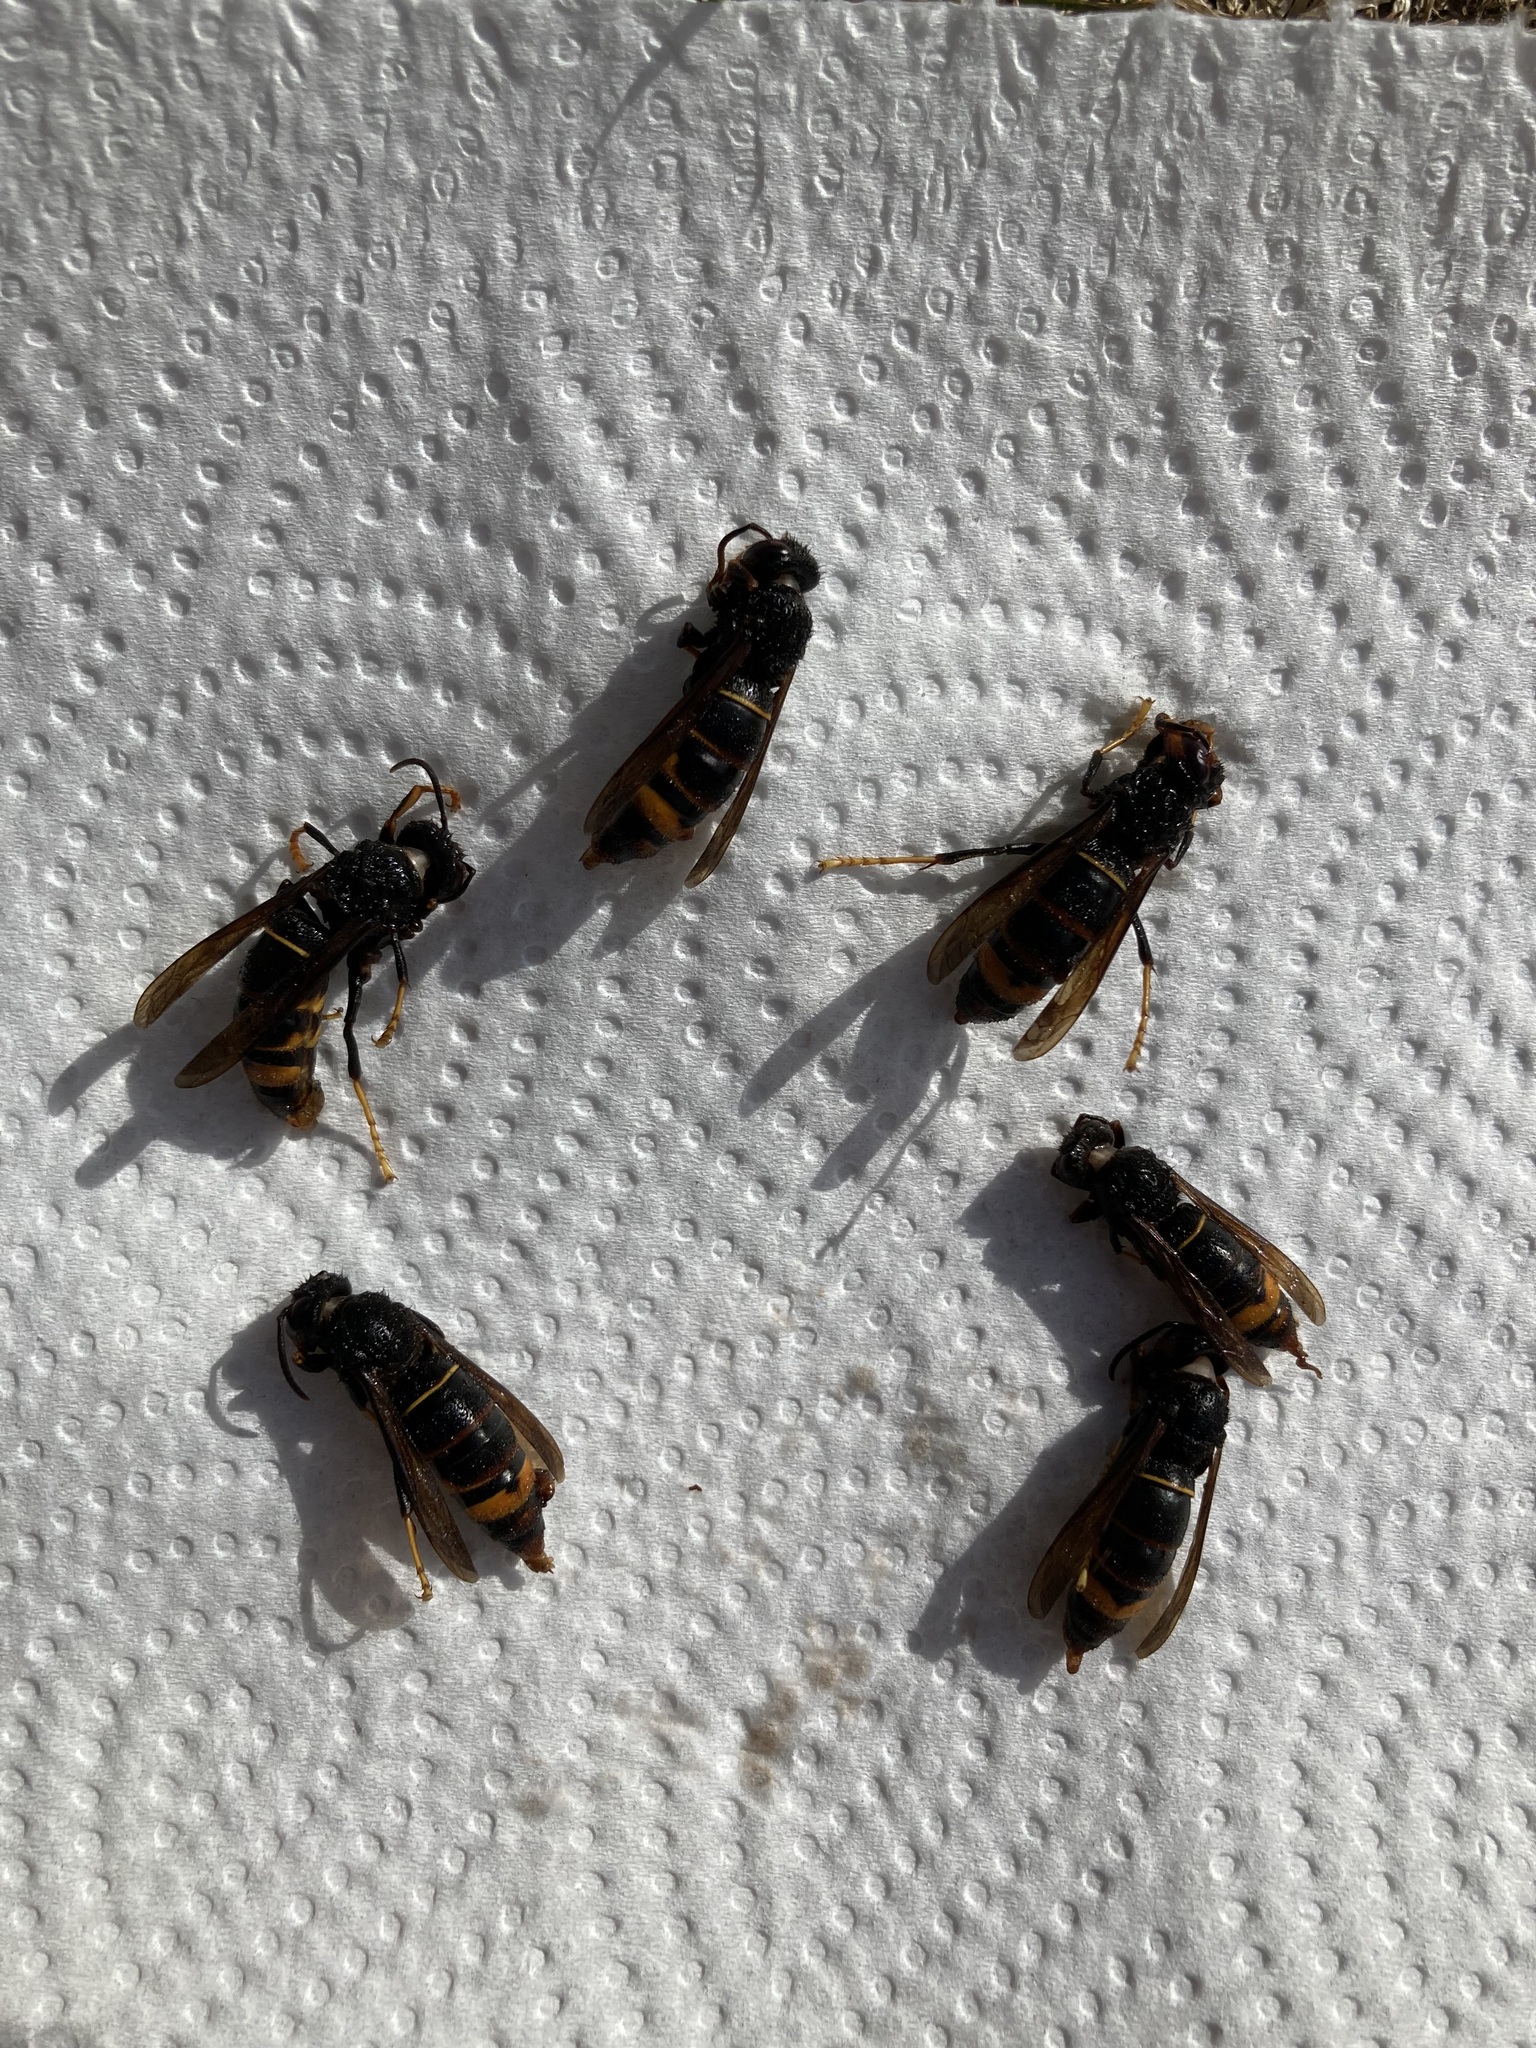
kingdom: Animalia
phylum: Arthropoda
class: Insecta
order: Hymenoptera
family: Vespidae
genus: Vespa
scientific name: Vespa velutina
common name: Asian hornet
